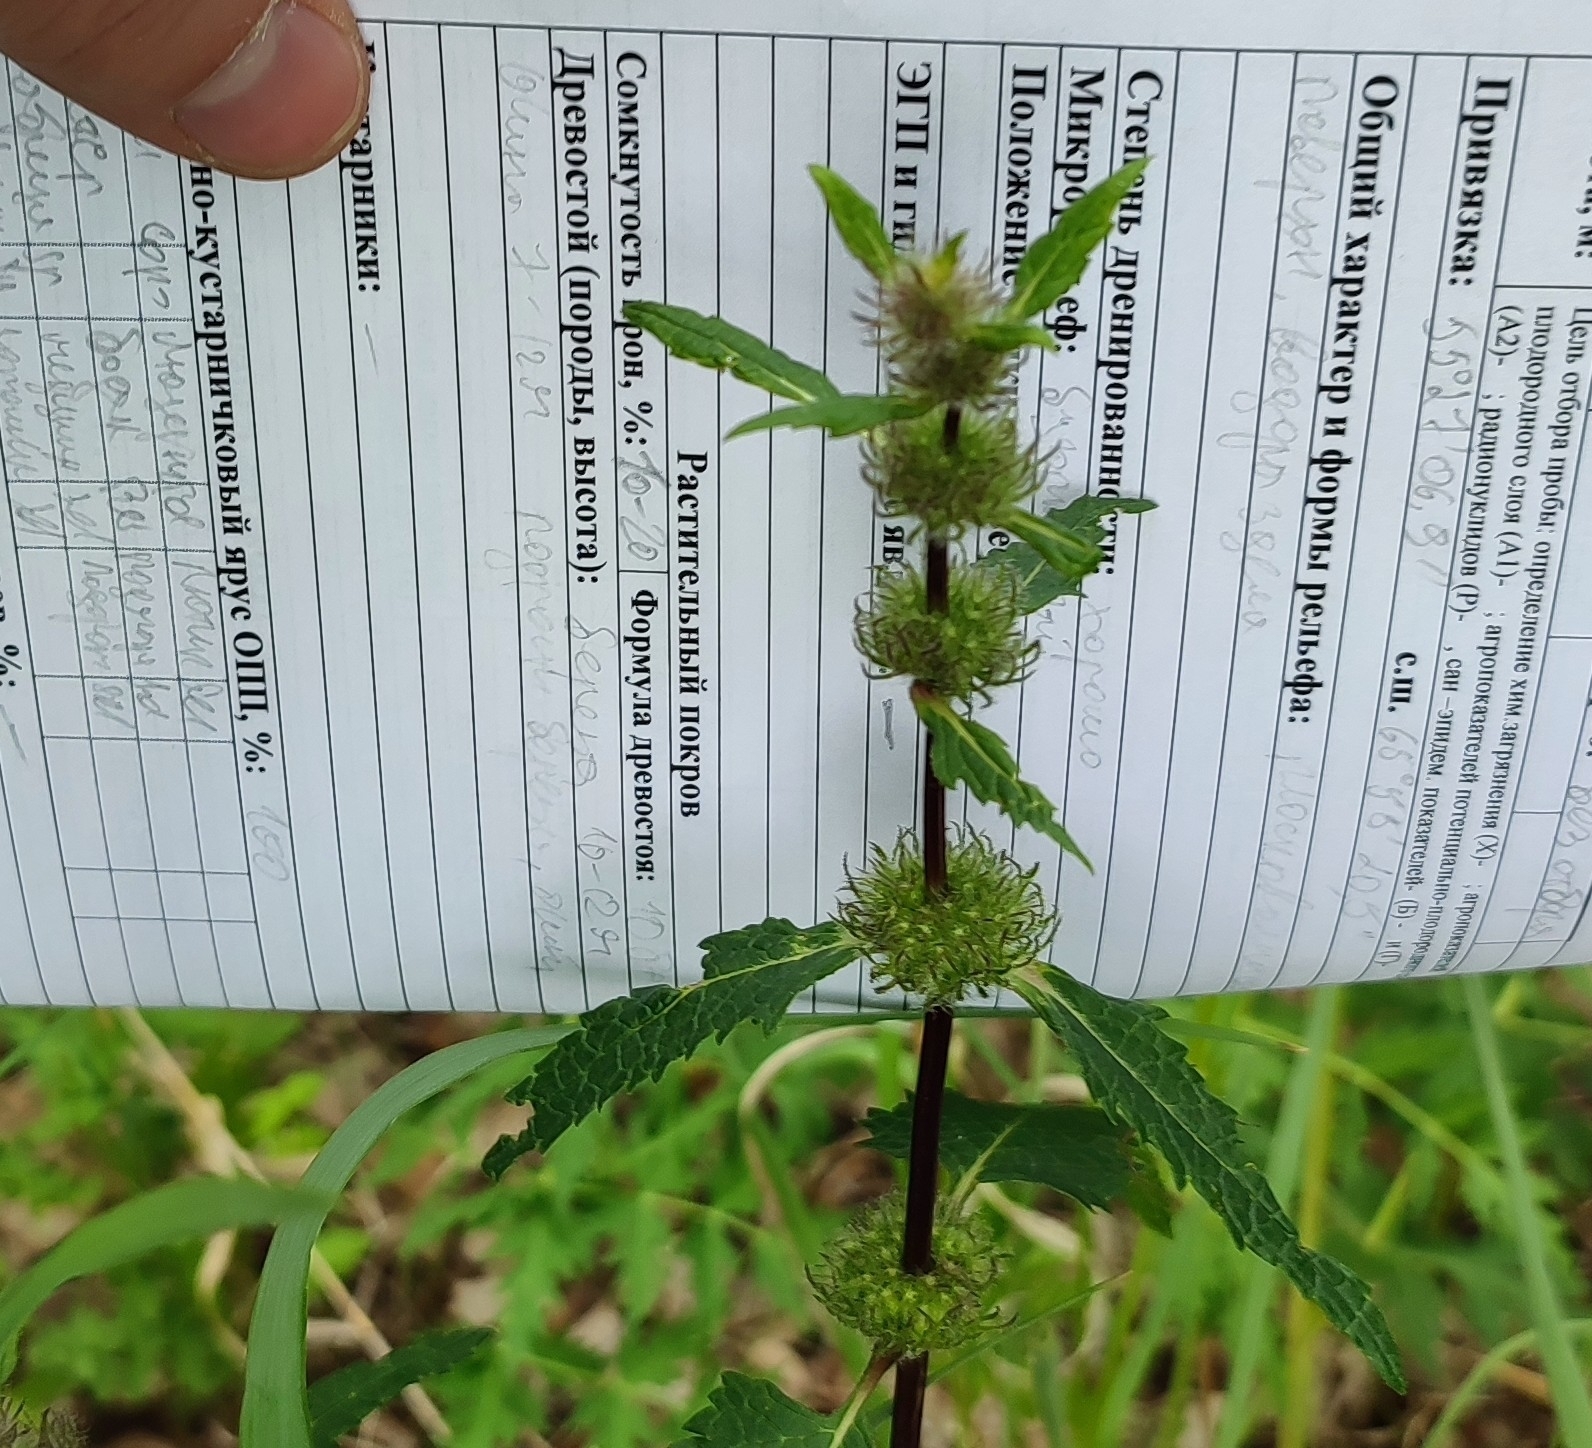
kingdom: Plantae
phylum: Tracheophyta
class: Magnoliopsida
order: Lamiales
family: Lamiaceae
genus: Phlomoides
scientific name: Phlomoides tuberosa
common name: Tuberous jerusalem sage
